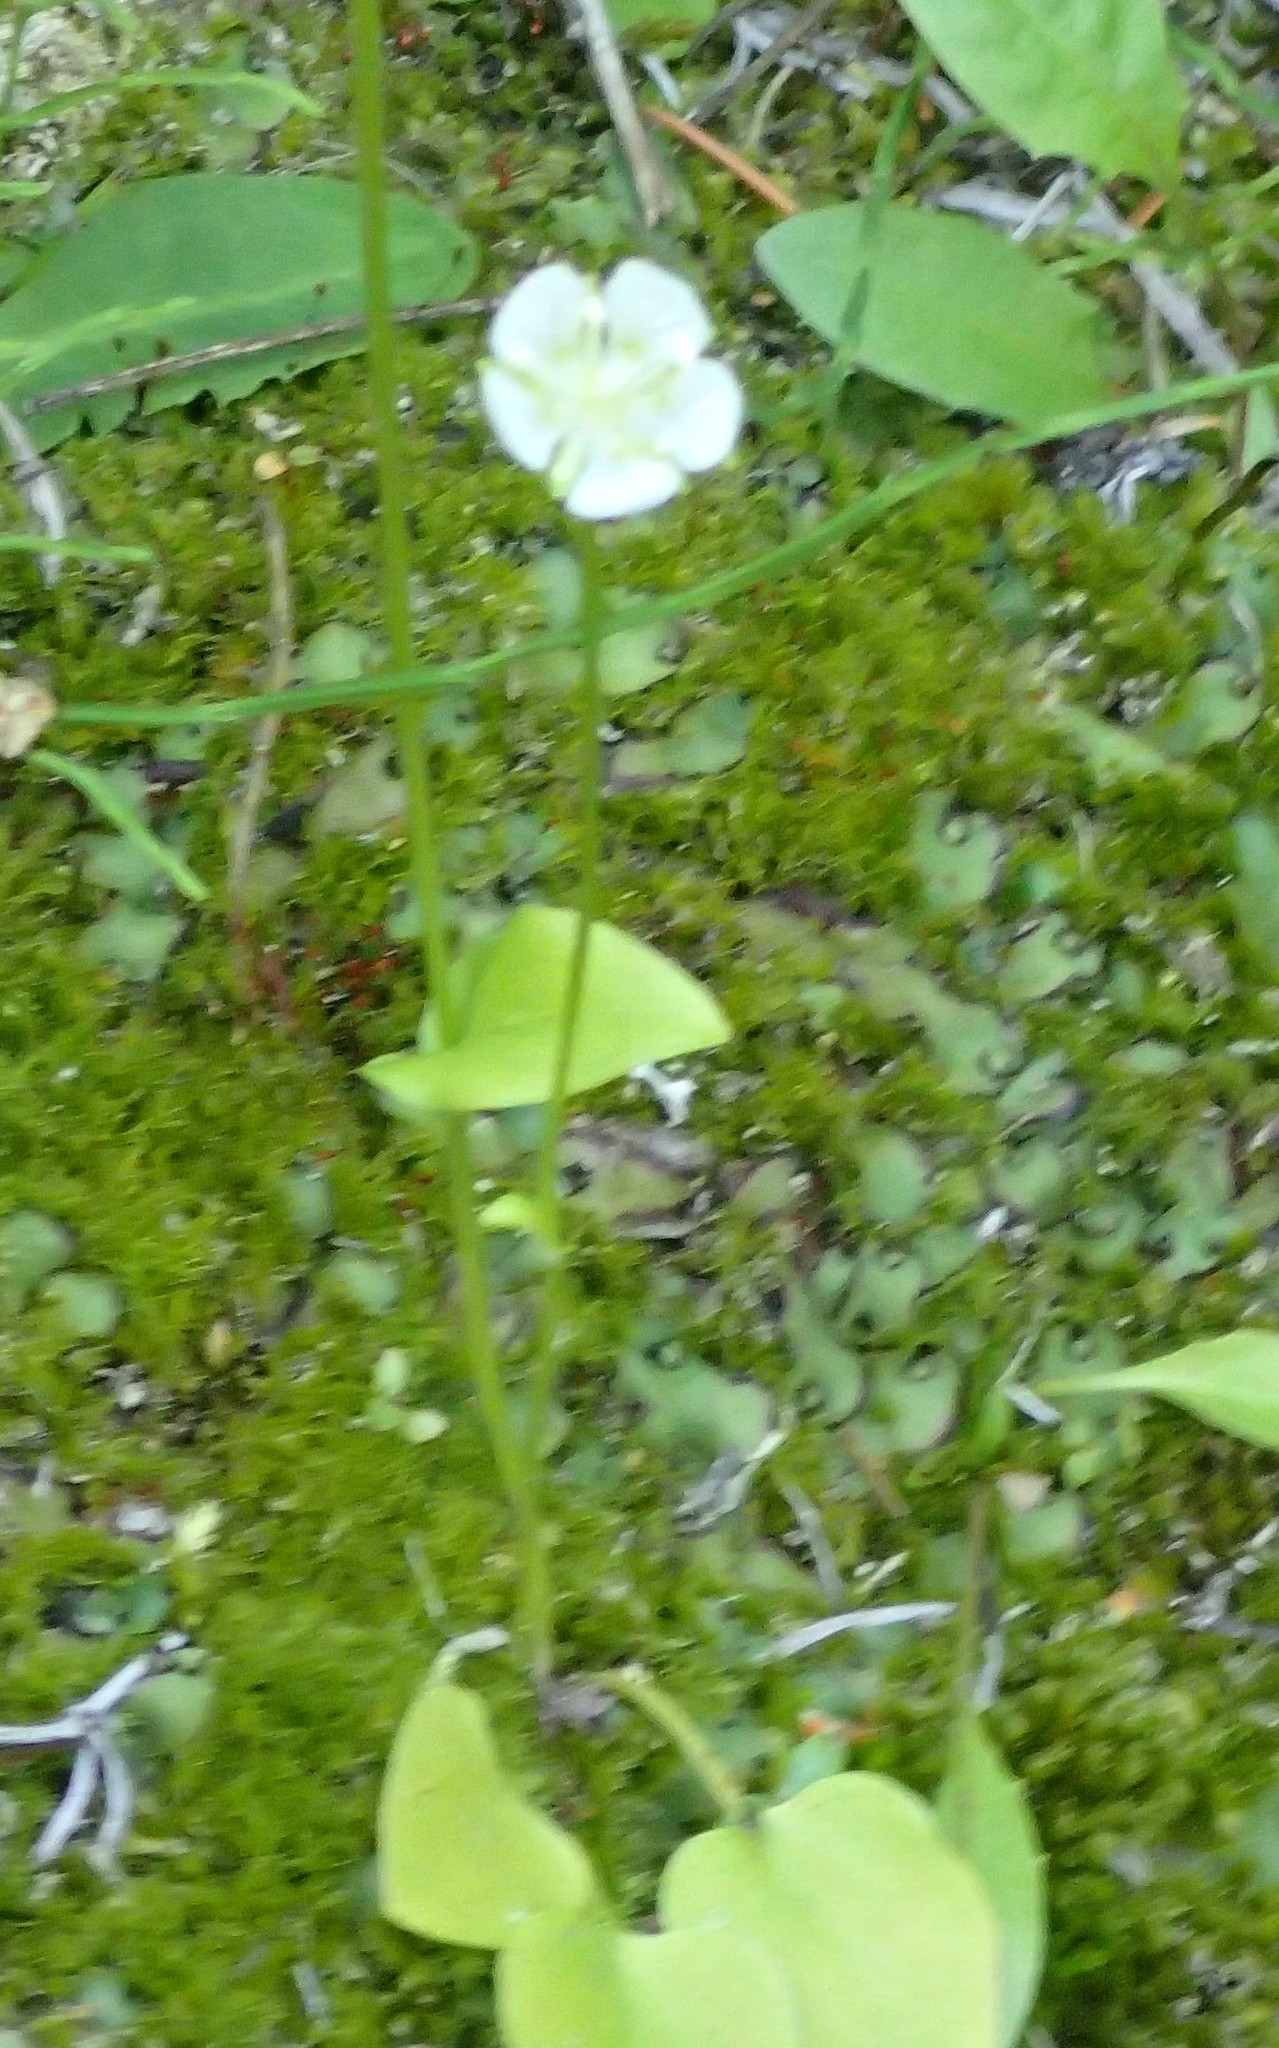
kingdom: Plantae
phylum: Tracheophyta
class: Magnoliopsida
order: Celastrales
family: Parnassiaceae
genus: Parnassia
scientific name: Parnassia palustris
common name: Grass-of-parnassus
